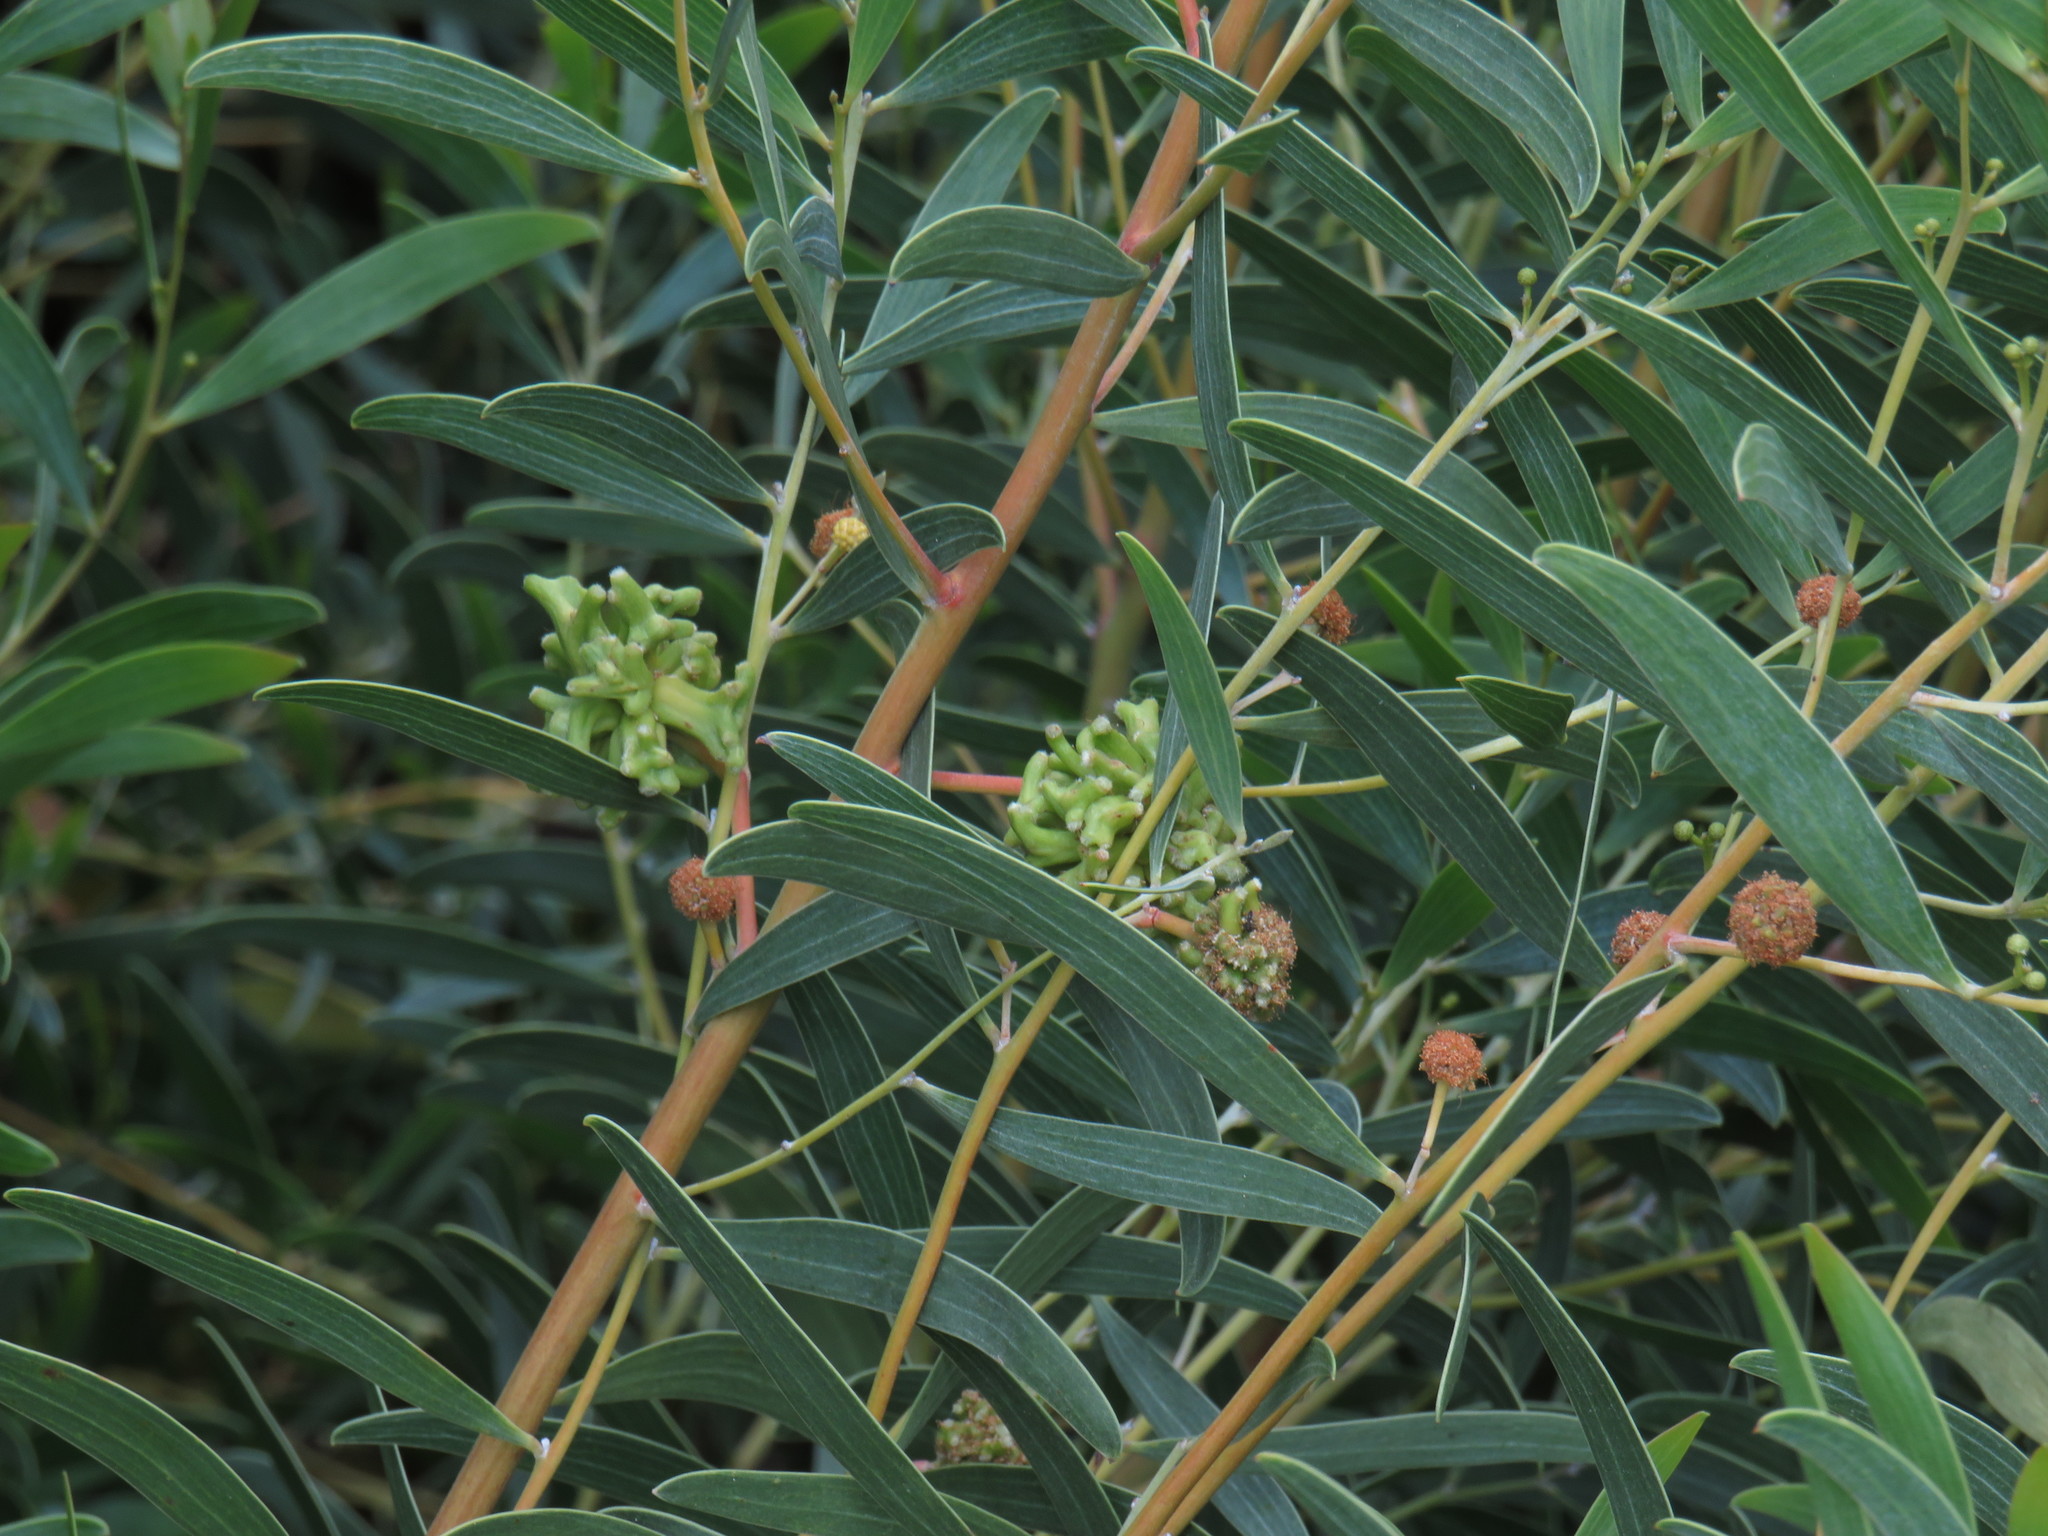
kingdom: Animalia
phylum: Arthropoda
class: Insecta
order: Diptera
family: Cecidomyiidae
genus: Dasineura
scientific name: Dasineura dielsi
